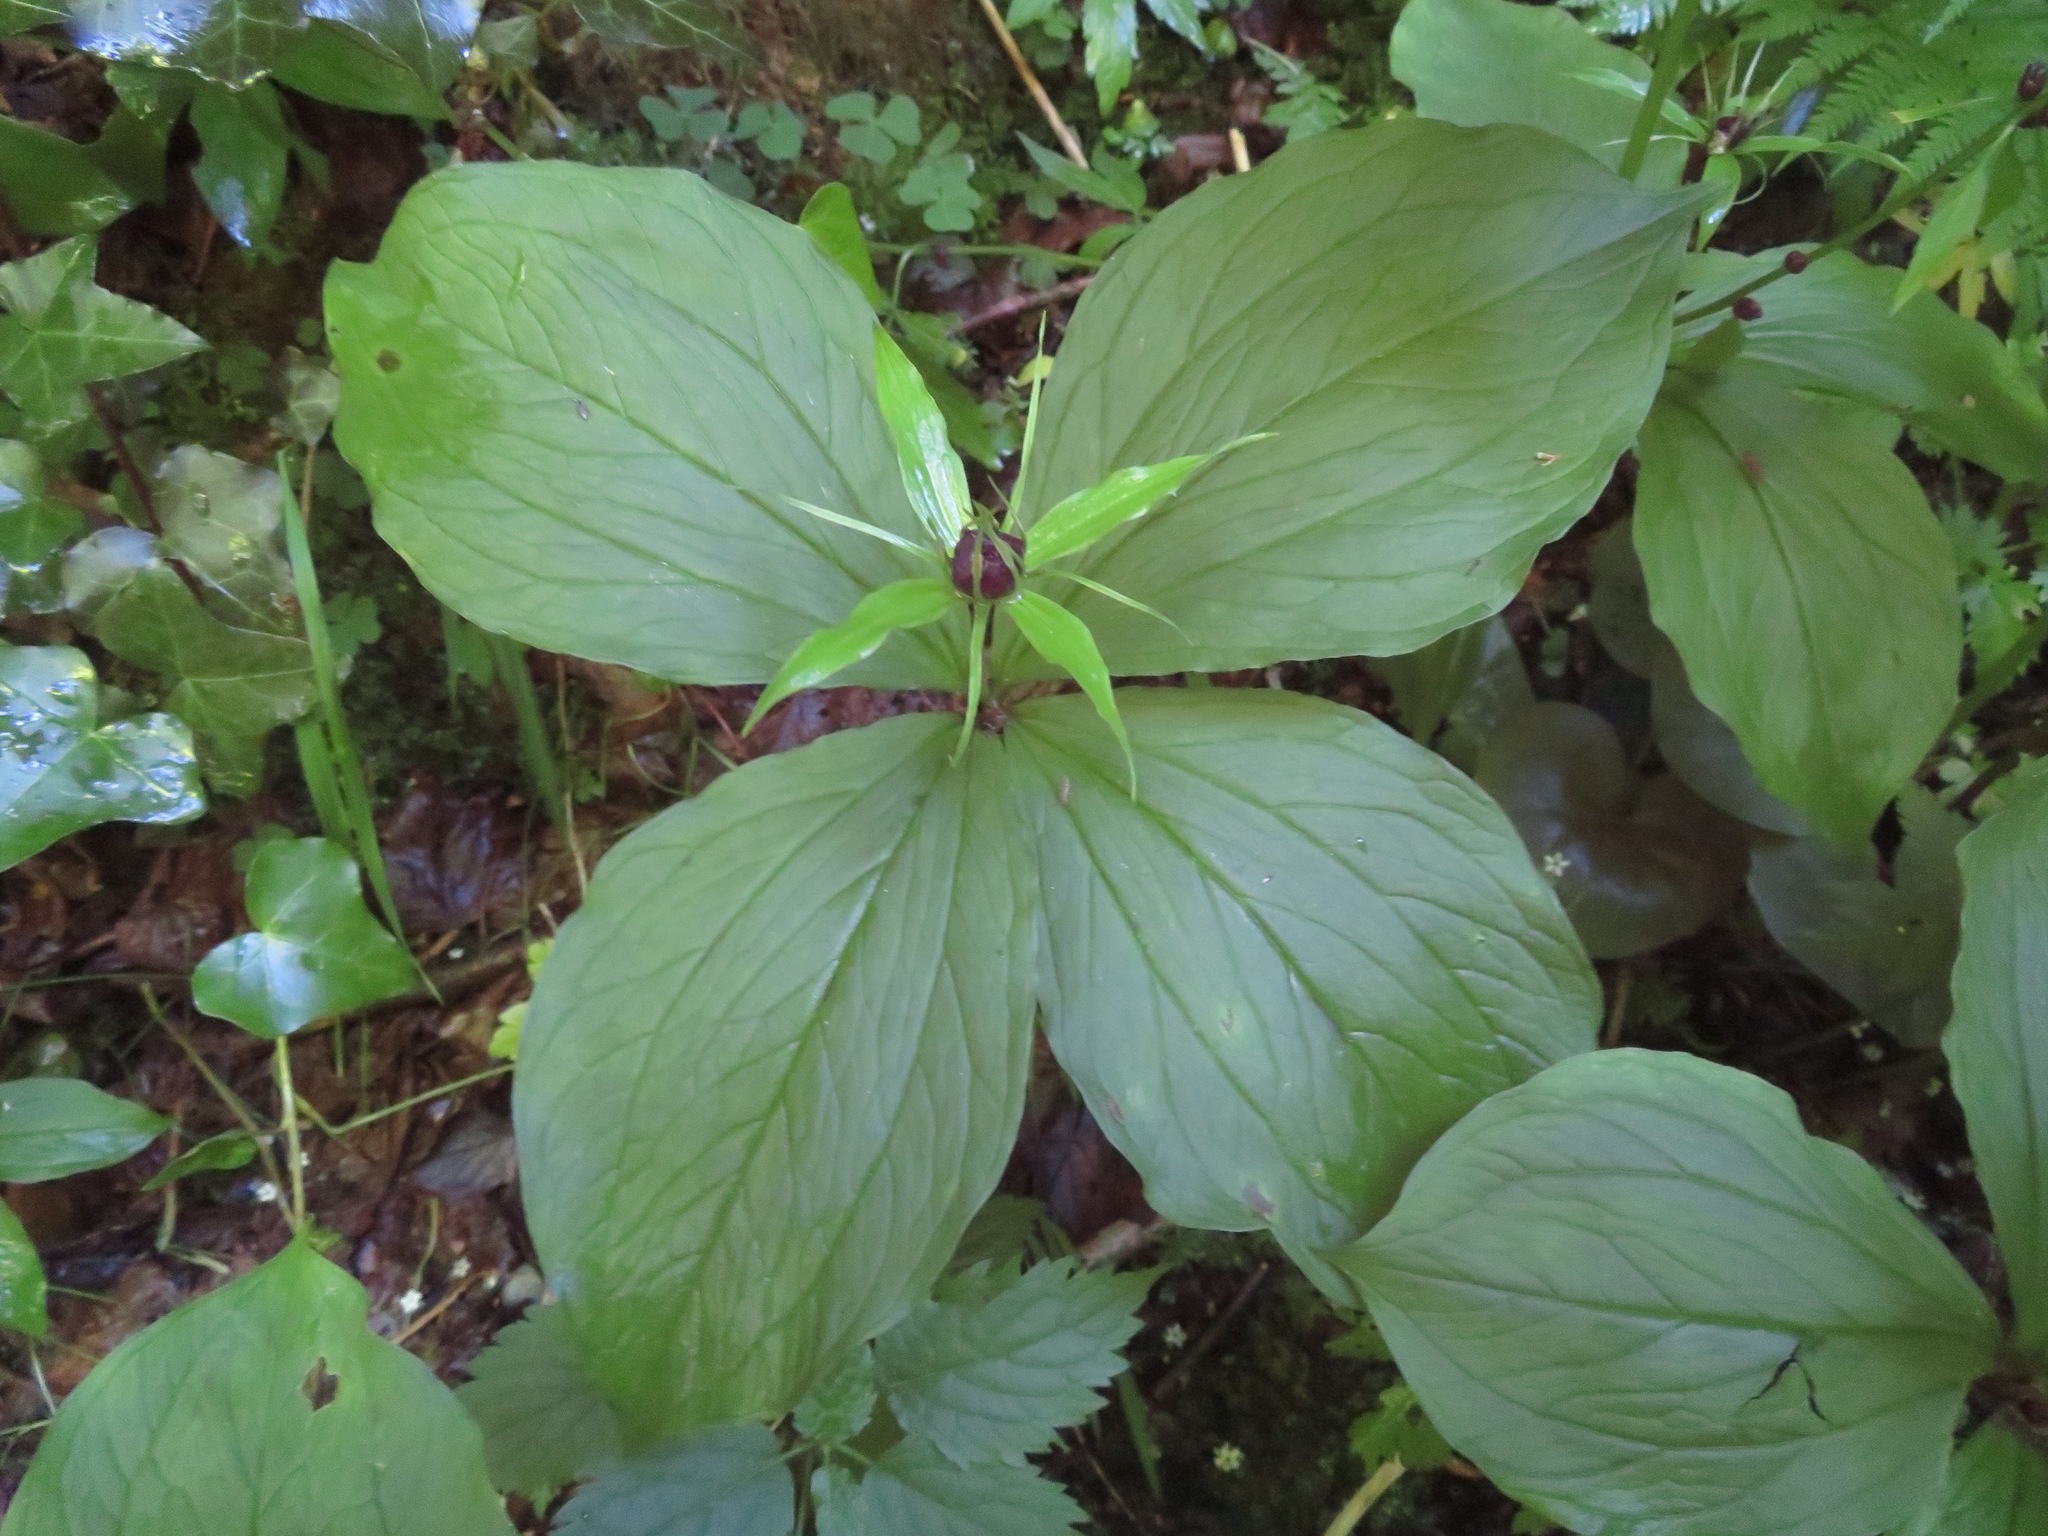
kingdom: Plantae
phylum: Tracheophyta
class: Liliopsida
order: Liliales
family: Melanthiaceae
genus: Paris
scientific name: Paris quadrifolia
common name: Herb-paris
